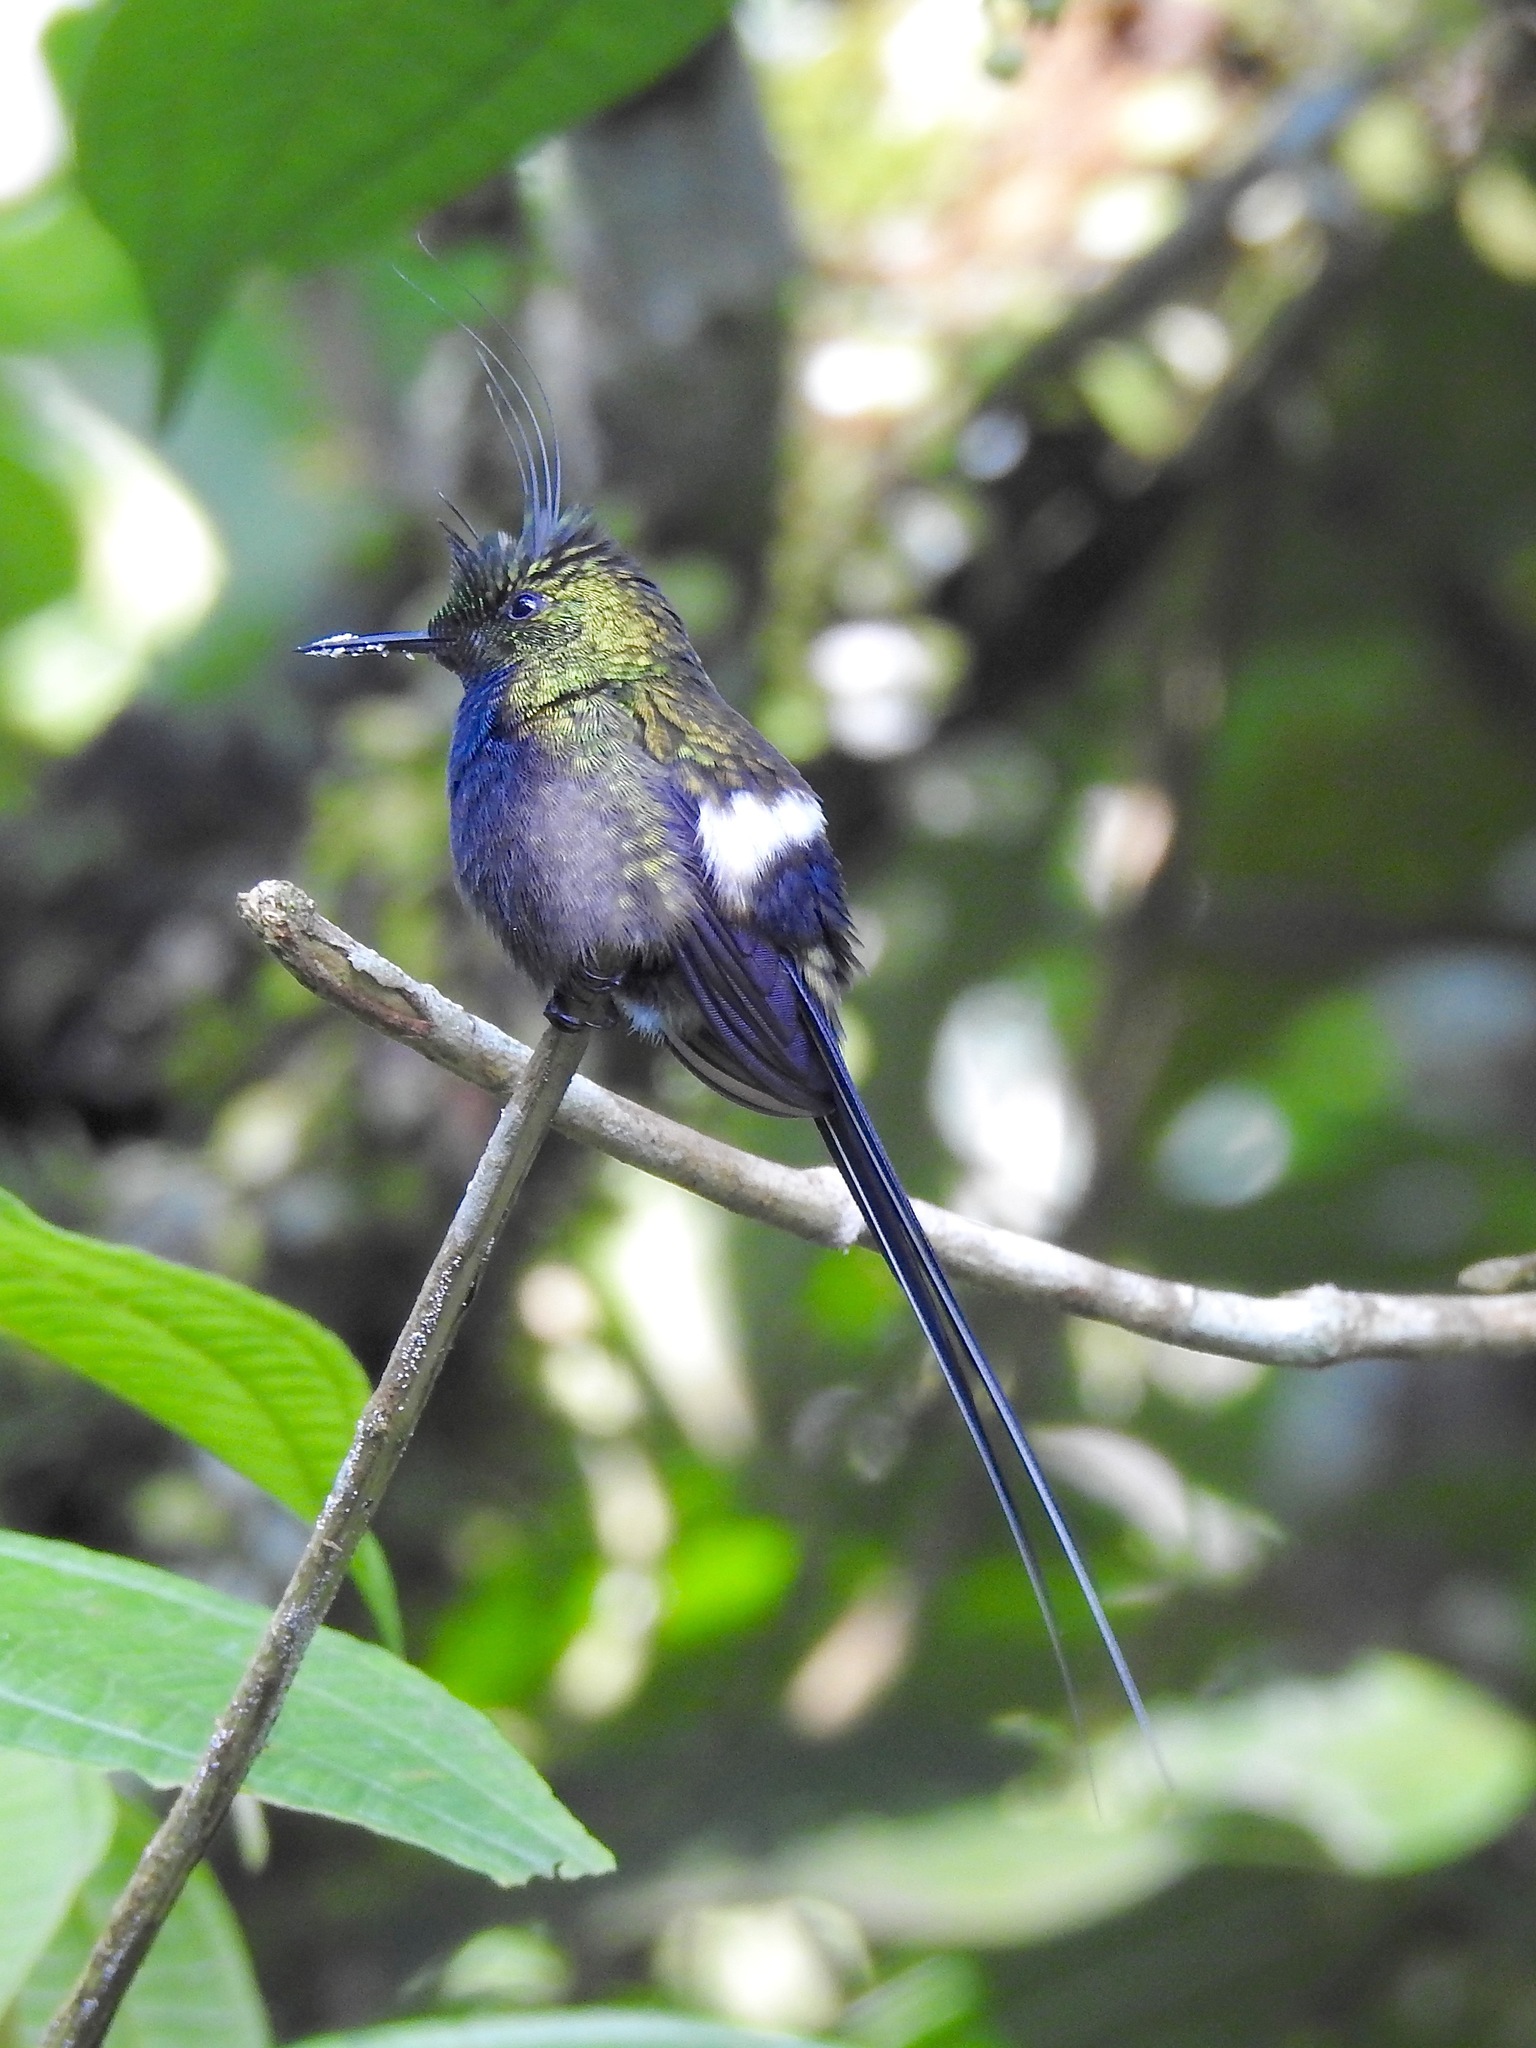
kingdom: Animalia
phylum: Chordata
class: Aves
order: Apodiformes
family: Trochilidae
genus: Discosura
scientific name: Discosura popelairii
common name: Wire-crested thorntail
